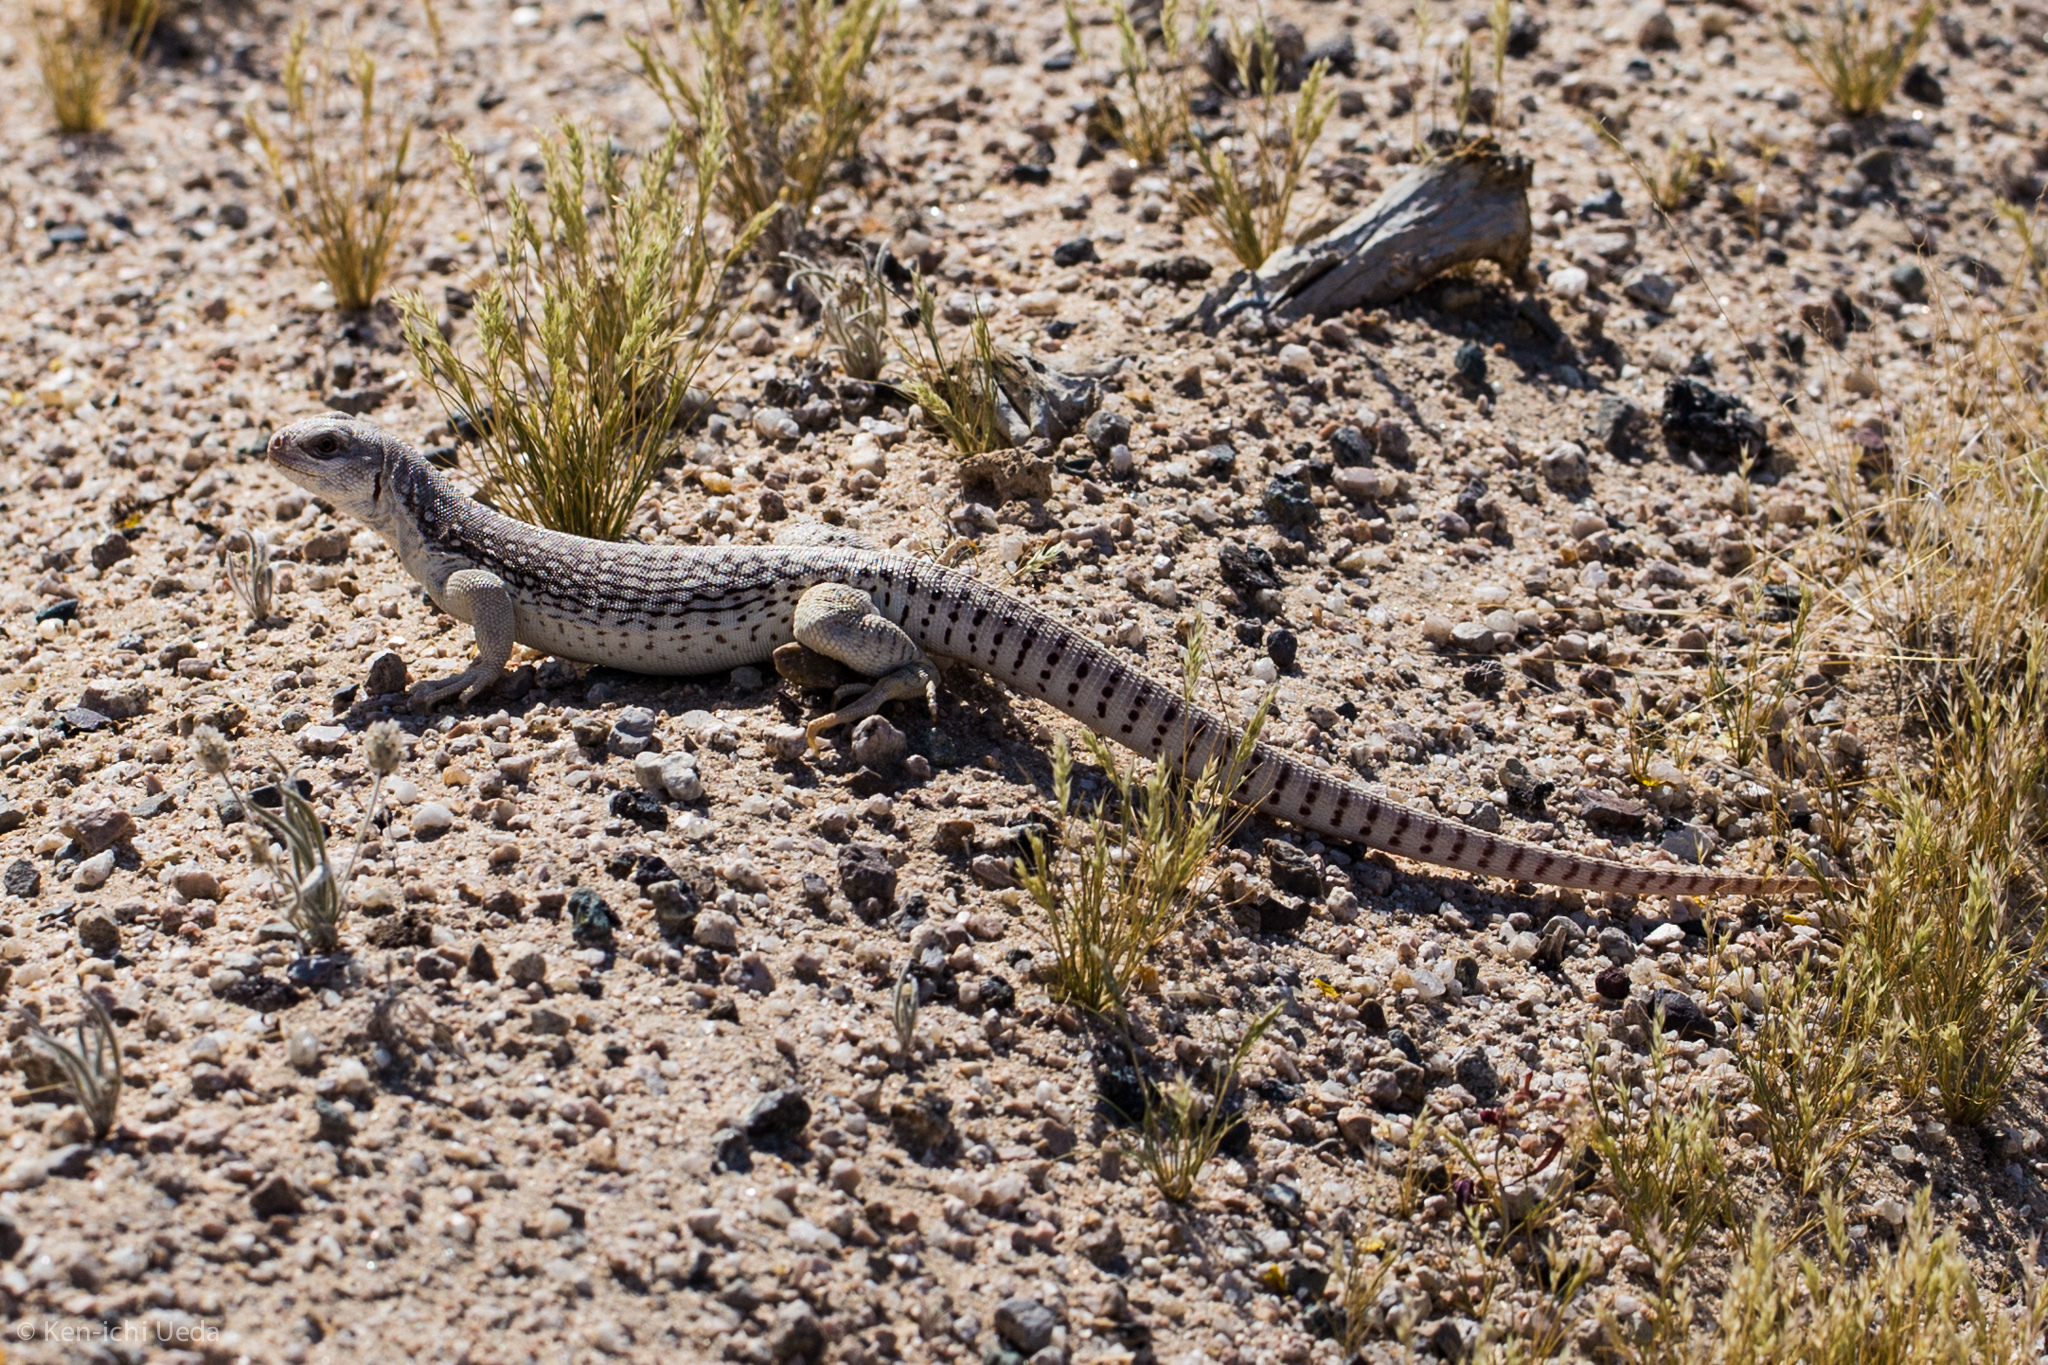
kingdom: Animalia
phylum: Chordata
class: Squamata
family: Iguanidae
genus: Dipsosaurus
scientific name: Dipsosaurus dorsalis
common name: Desert iguana
